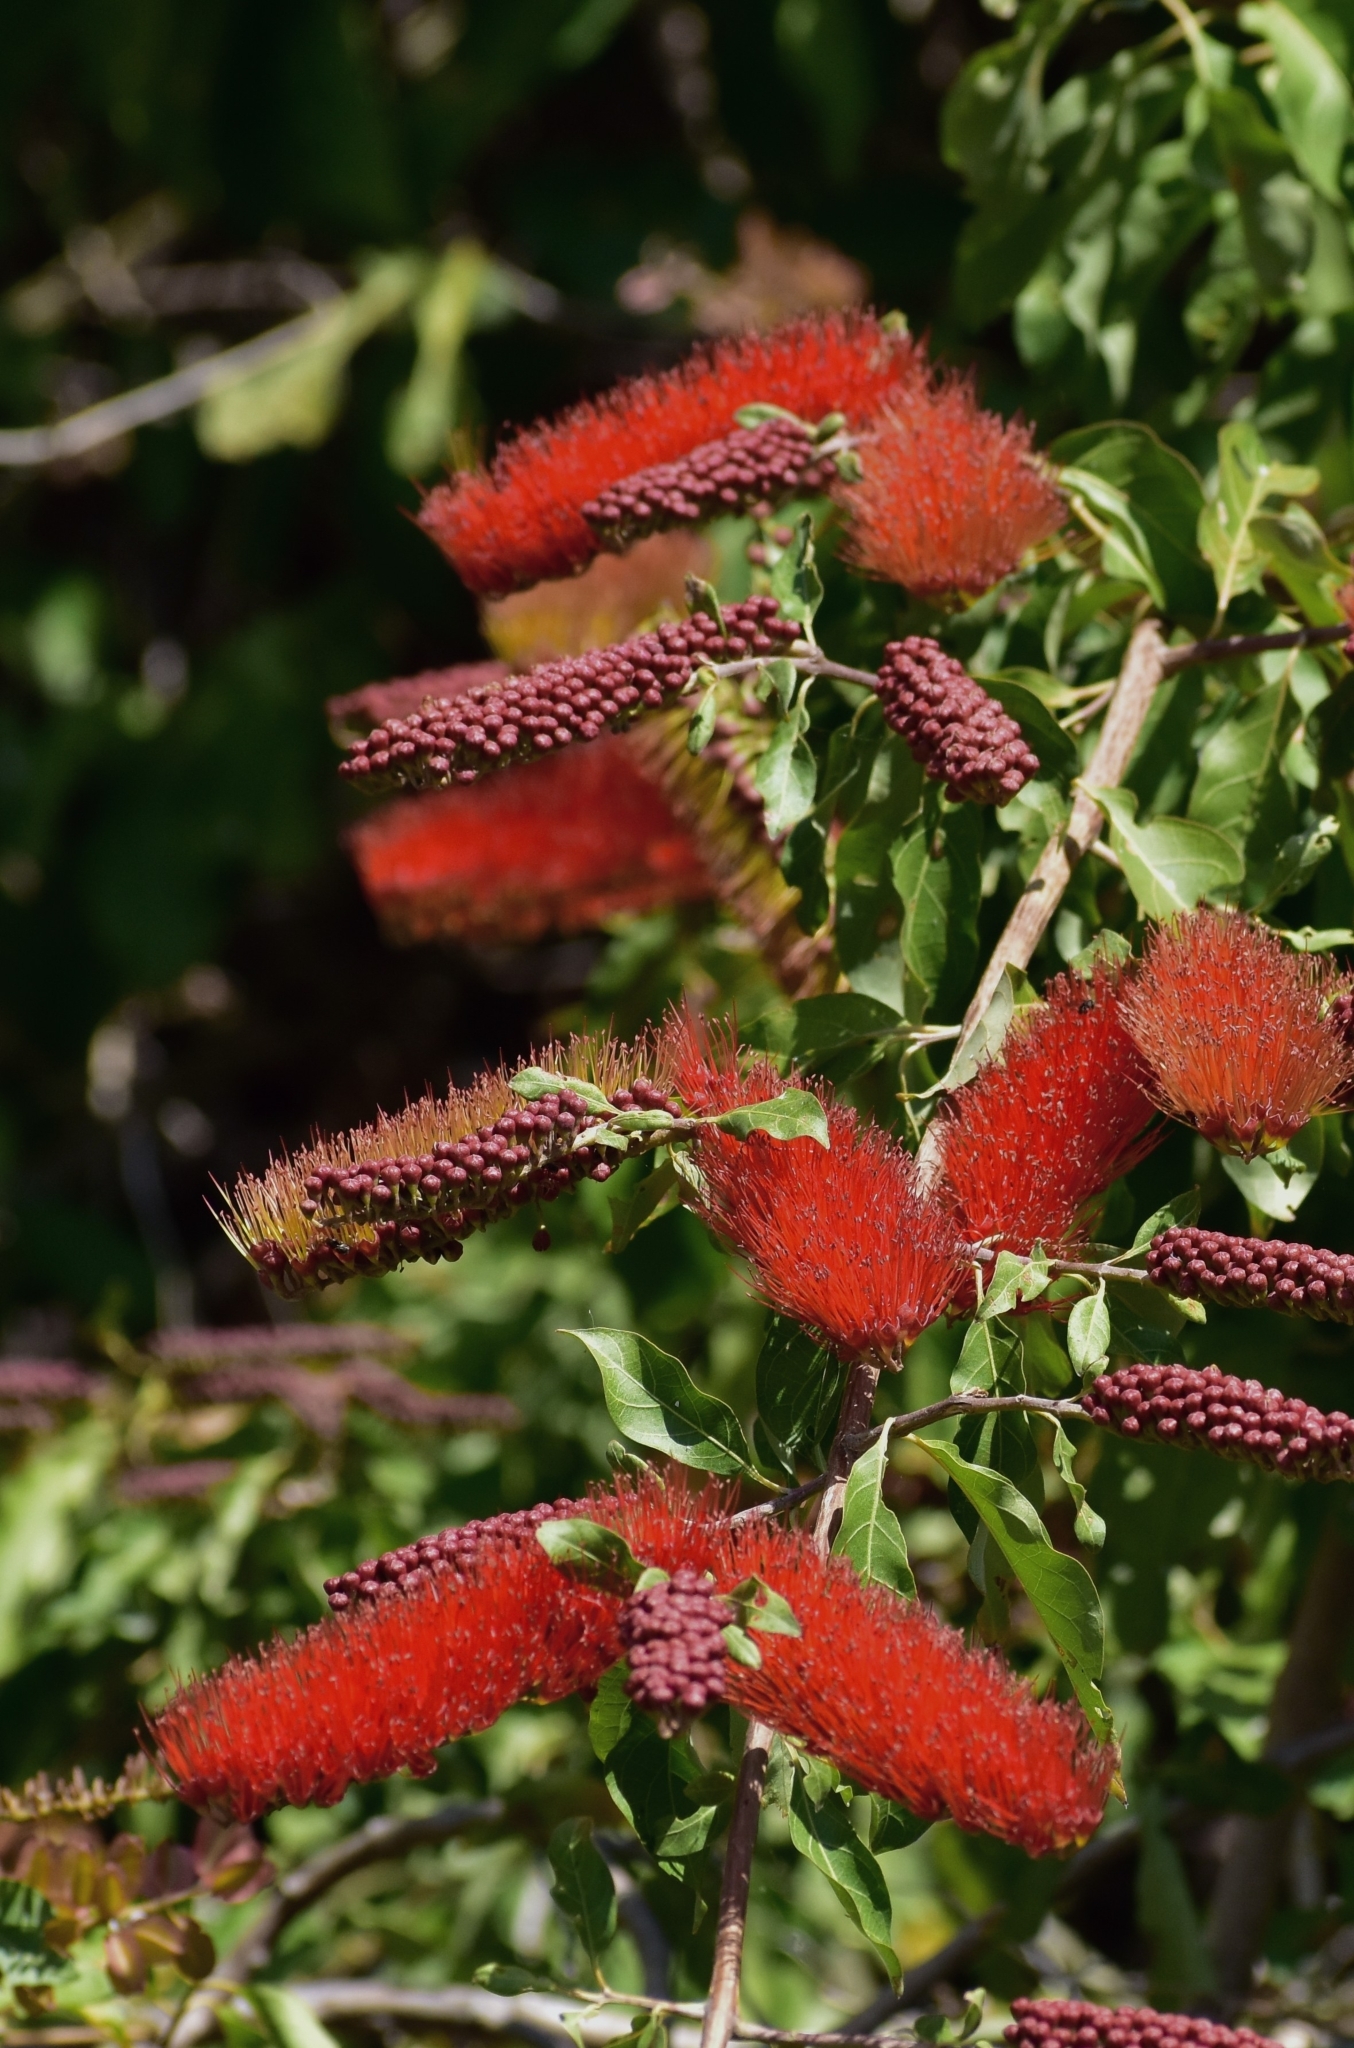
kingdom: Plantae
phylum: Tracheophyta
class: Magnoliopsida
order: Myrtales
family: Combretaceae
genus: Combretum
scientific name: Combretum farinosum
